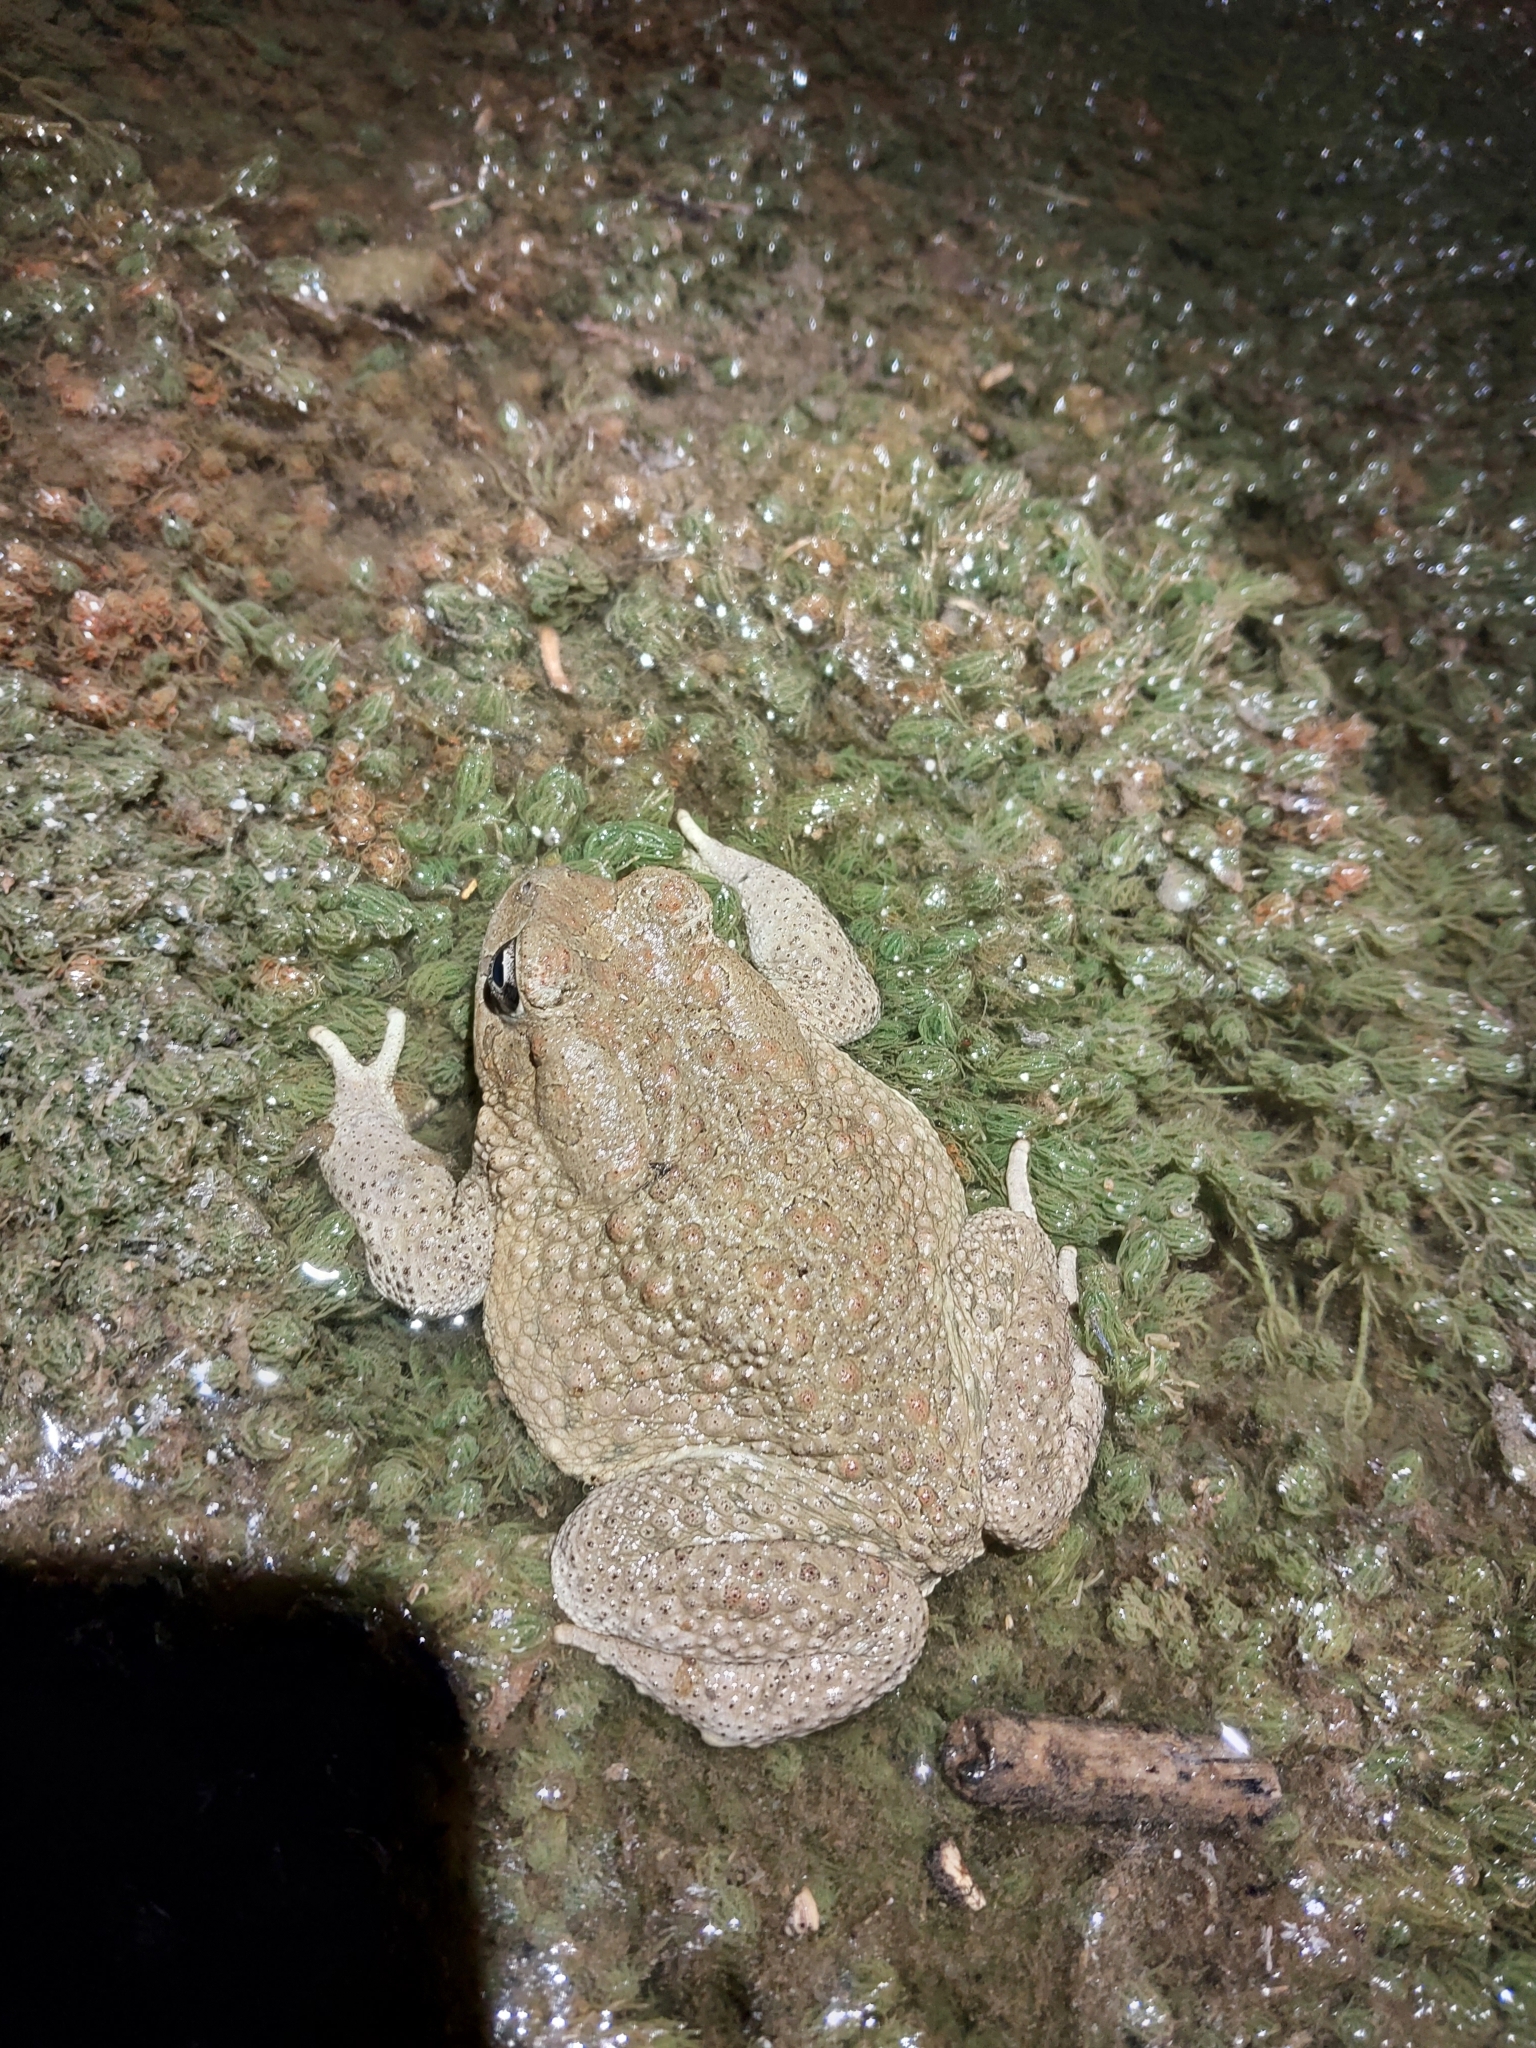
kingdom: Animalia
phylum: Chordata
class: Amphibia
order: Anura
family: Bufonidae
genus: Bufotes
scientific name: Bufotes boulengeri
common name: African green toad
